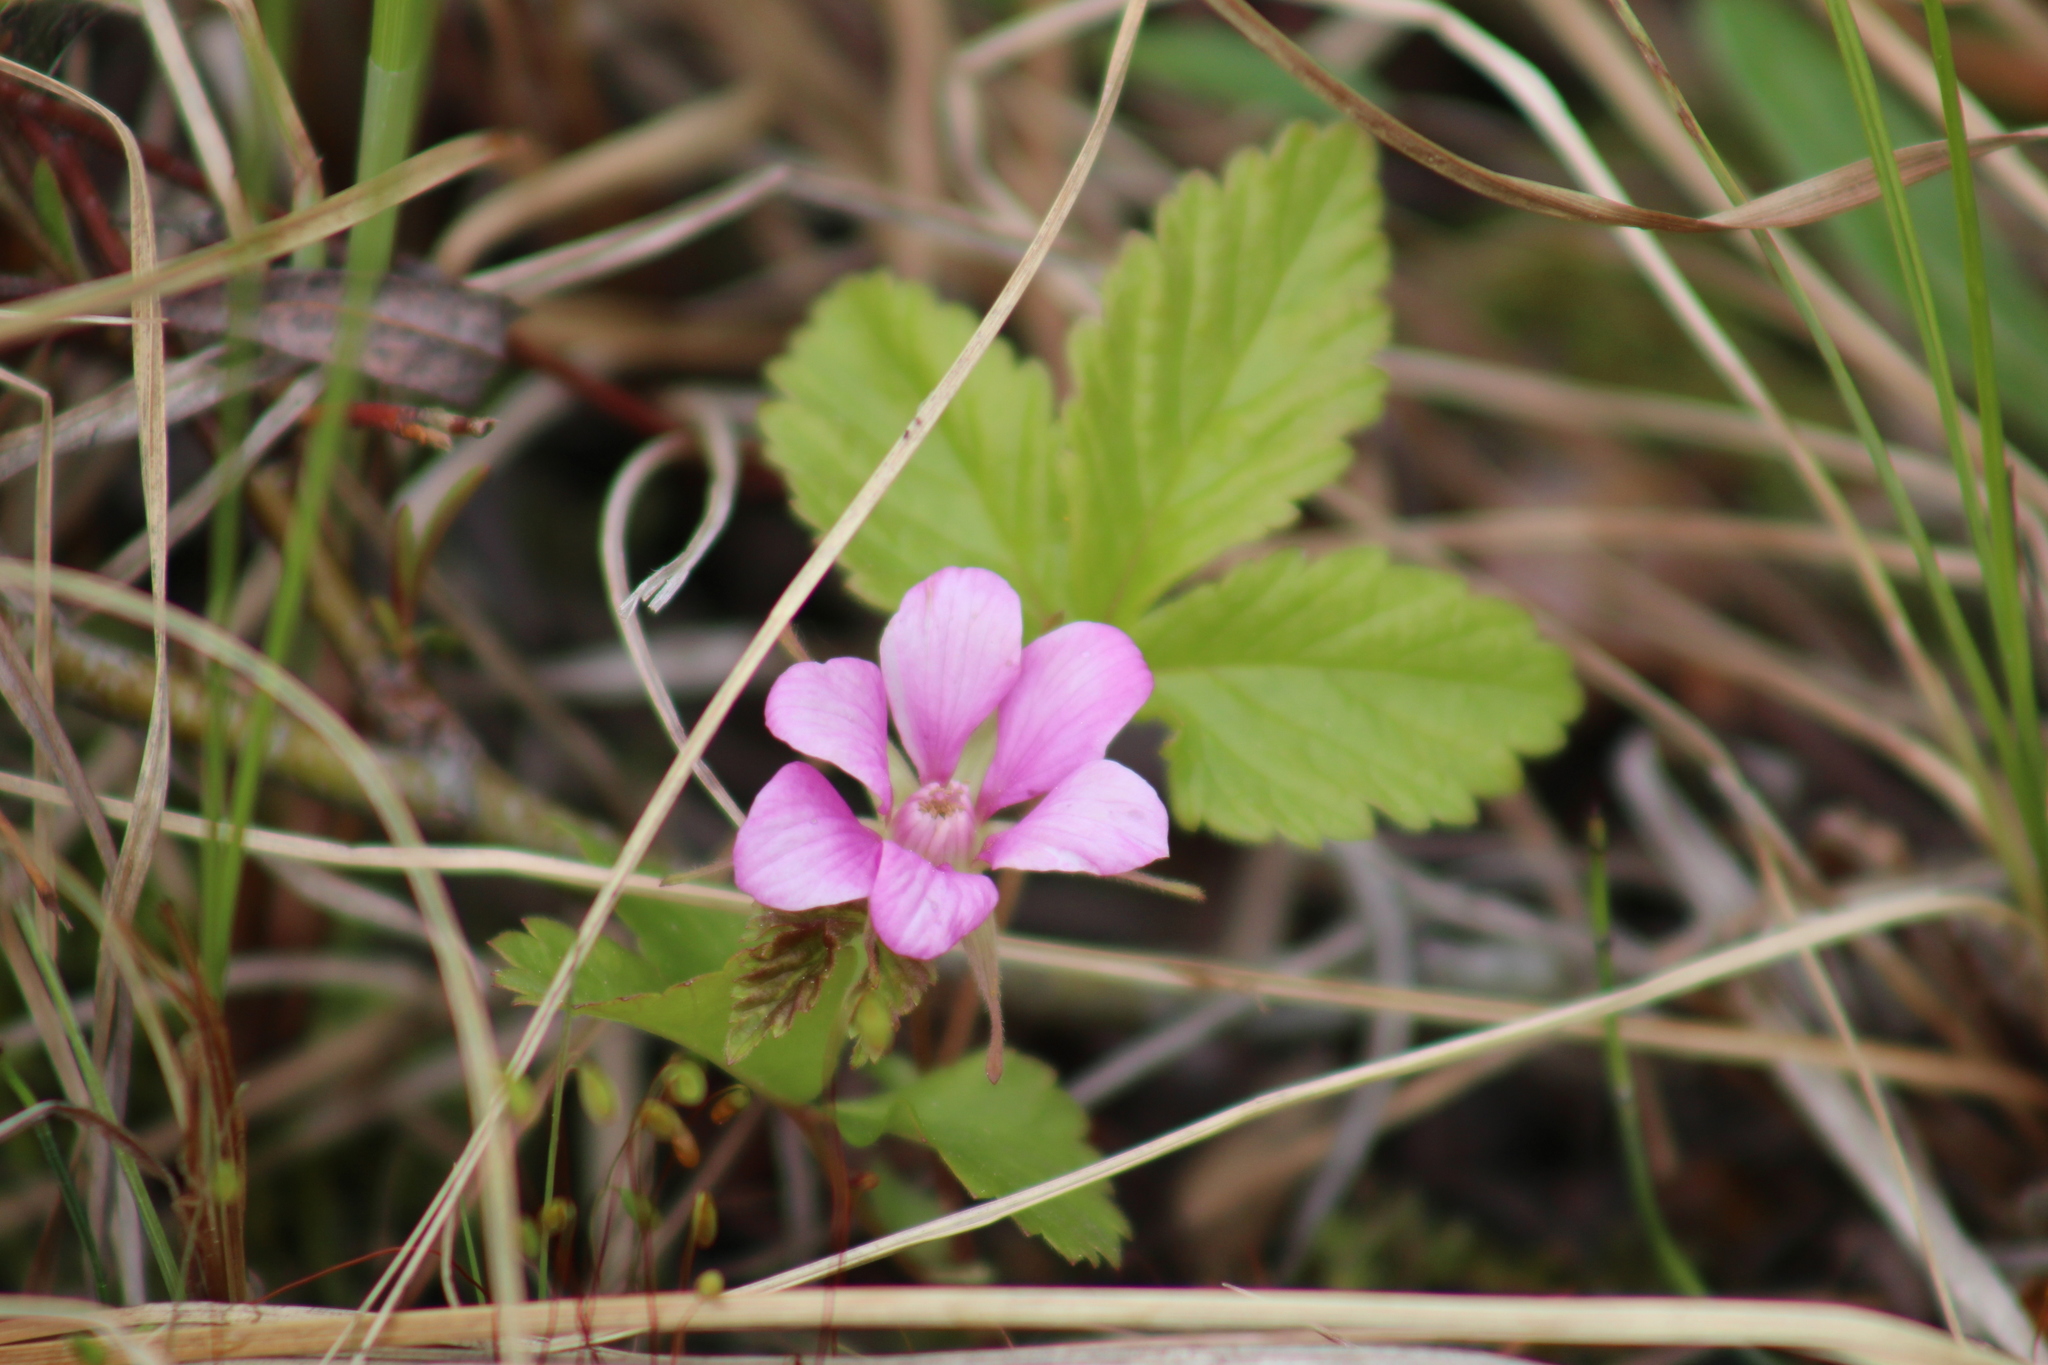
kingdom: Plantae
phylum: Tracheophyta
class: Magnoliopsida
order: Rosales
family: Rosaceae
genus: Rubus
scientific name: Rubus arcticus
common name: Arctic bramble
